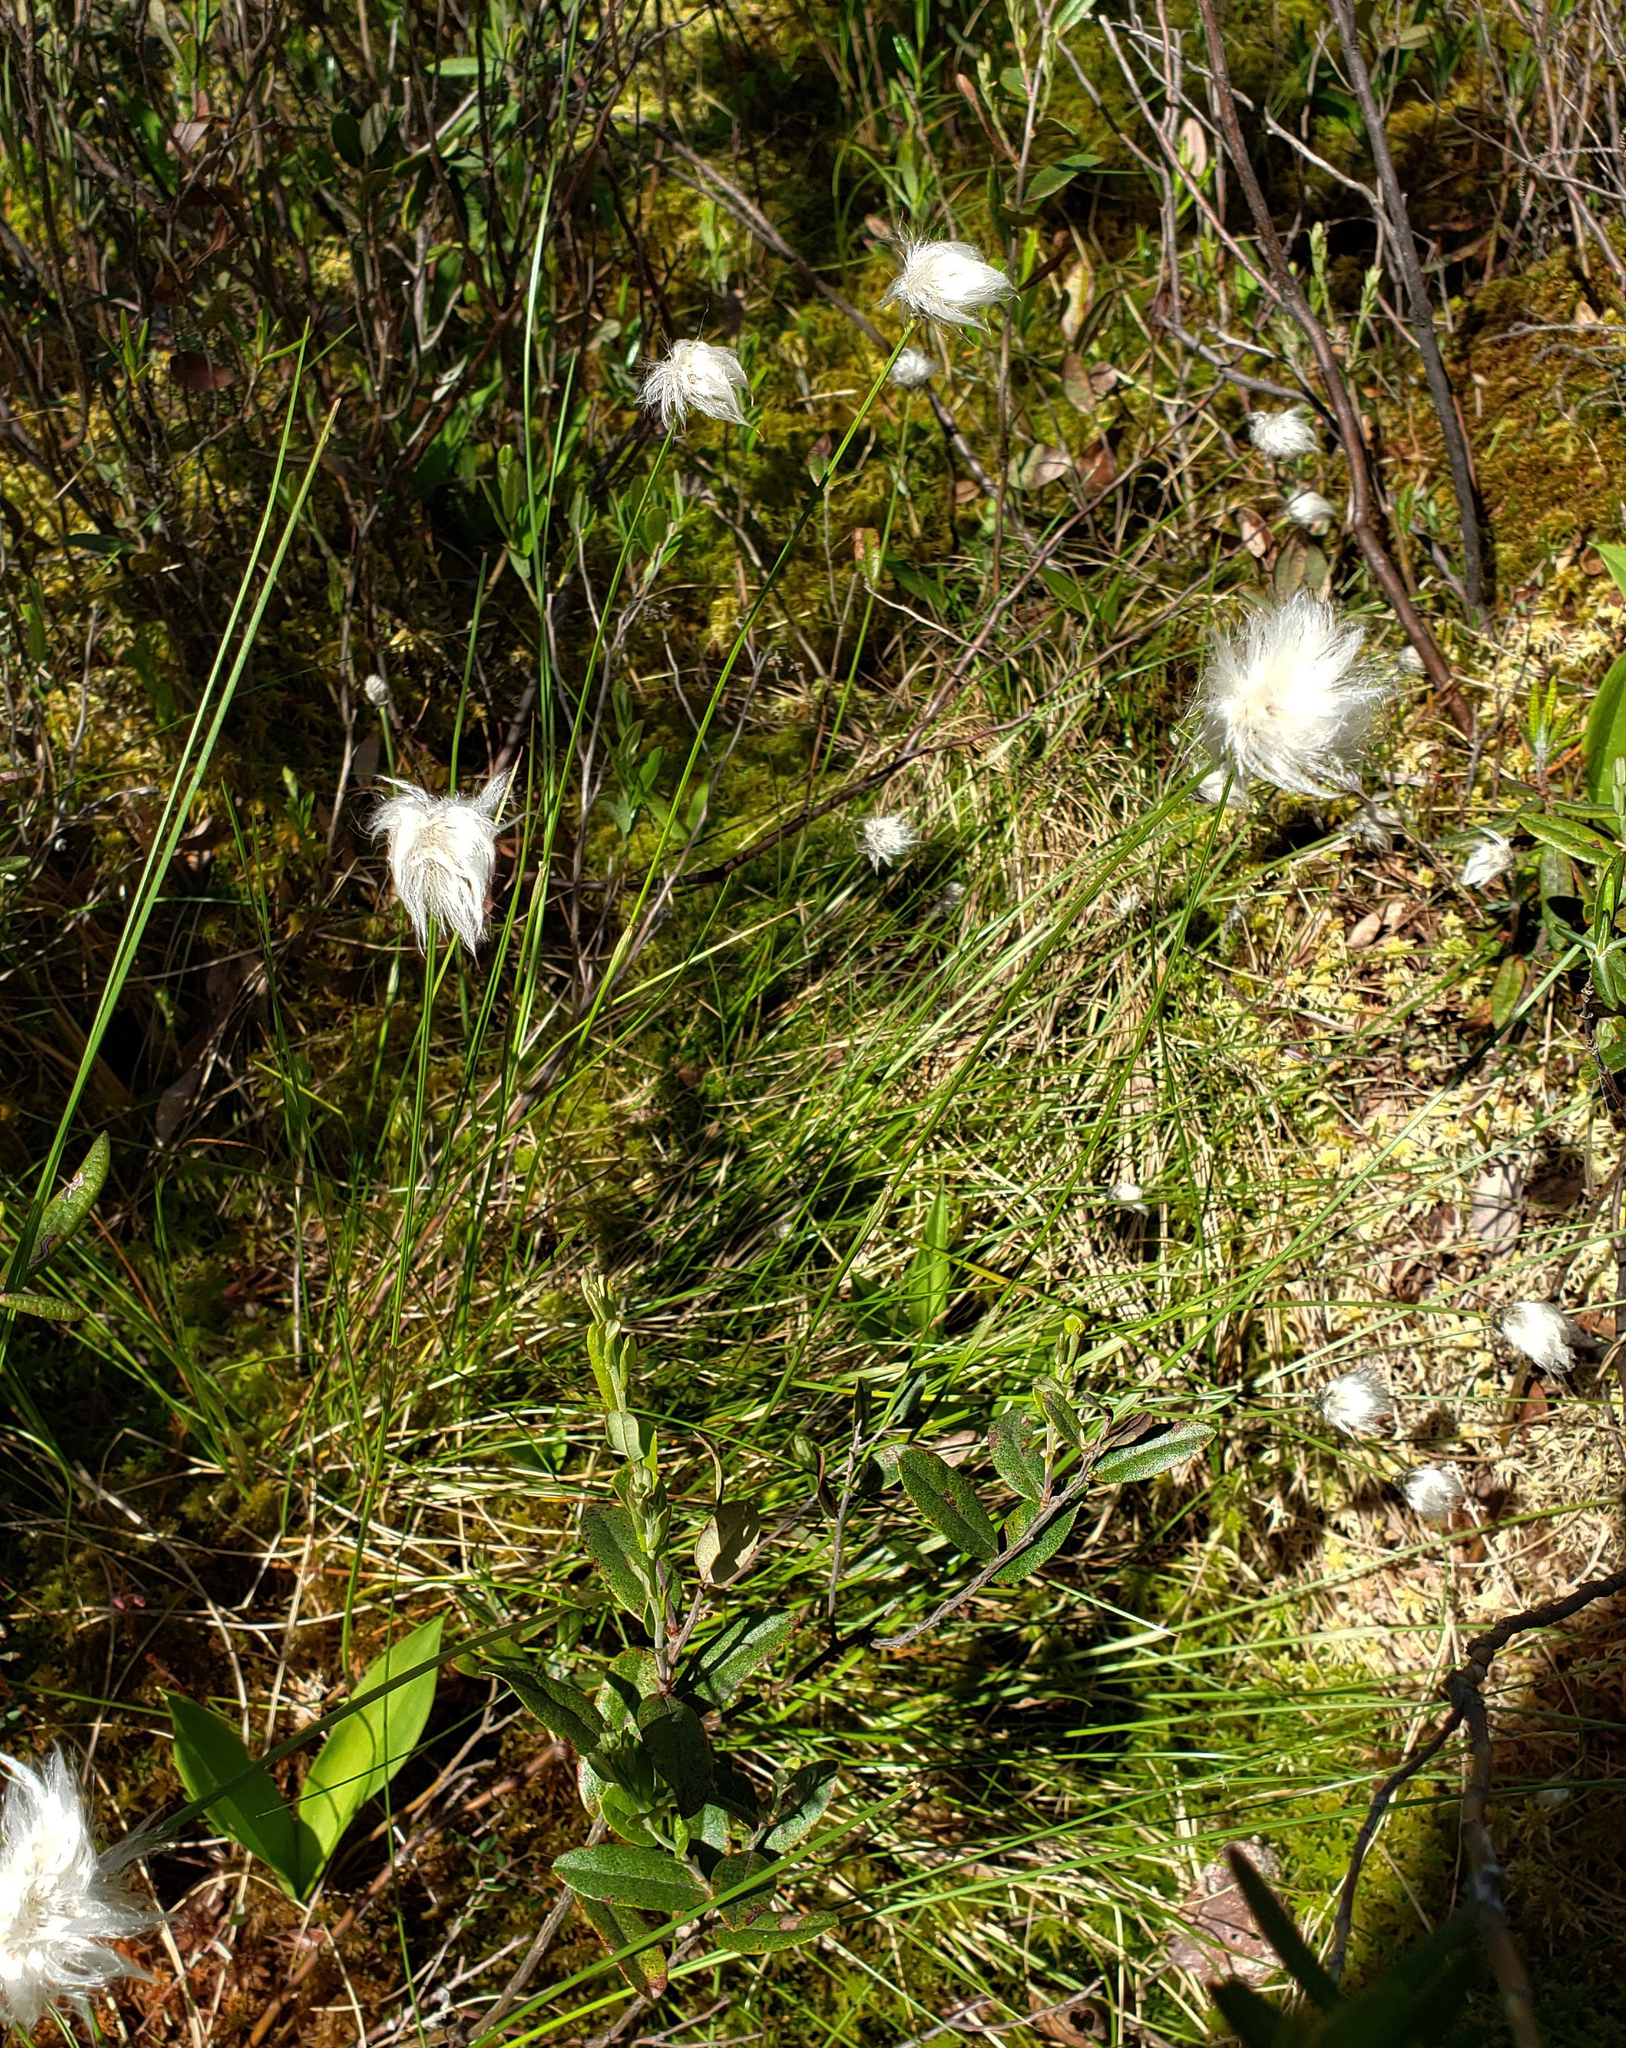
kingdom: Plantae
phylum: Tracheophyta
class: Liliopsida
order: Poales
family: Cyperaceae
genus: Eriophorum
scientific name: Eriophorum vaginatum
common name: Hare's-tail cottongrass
